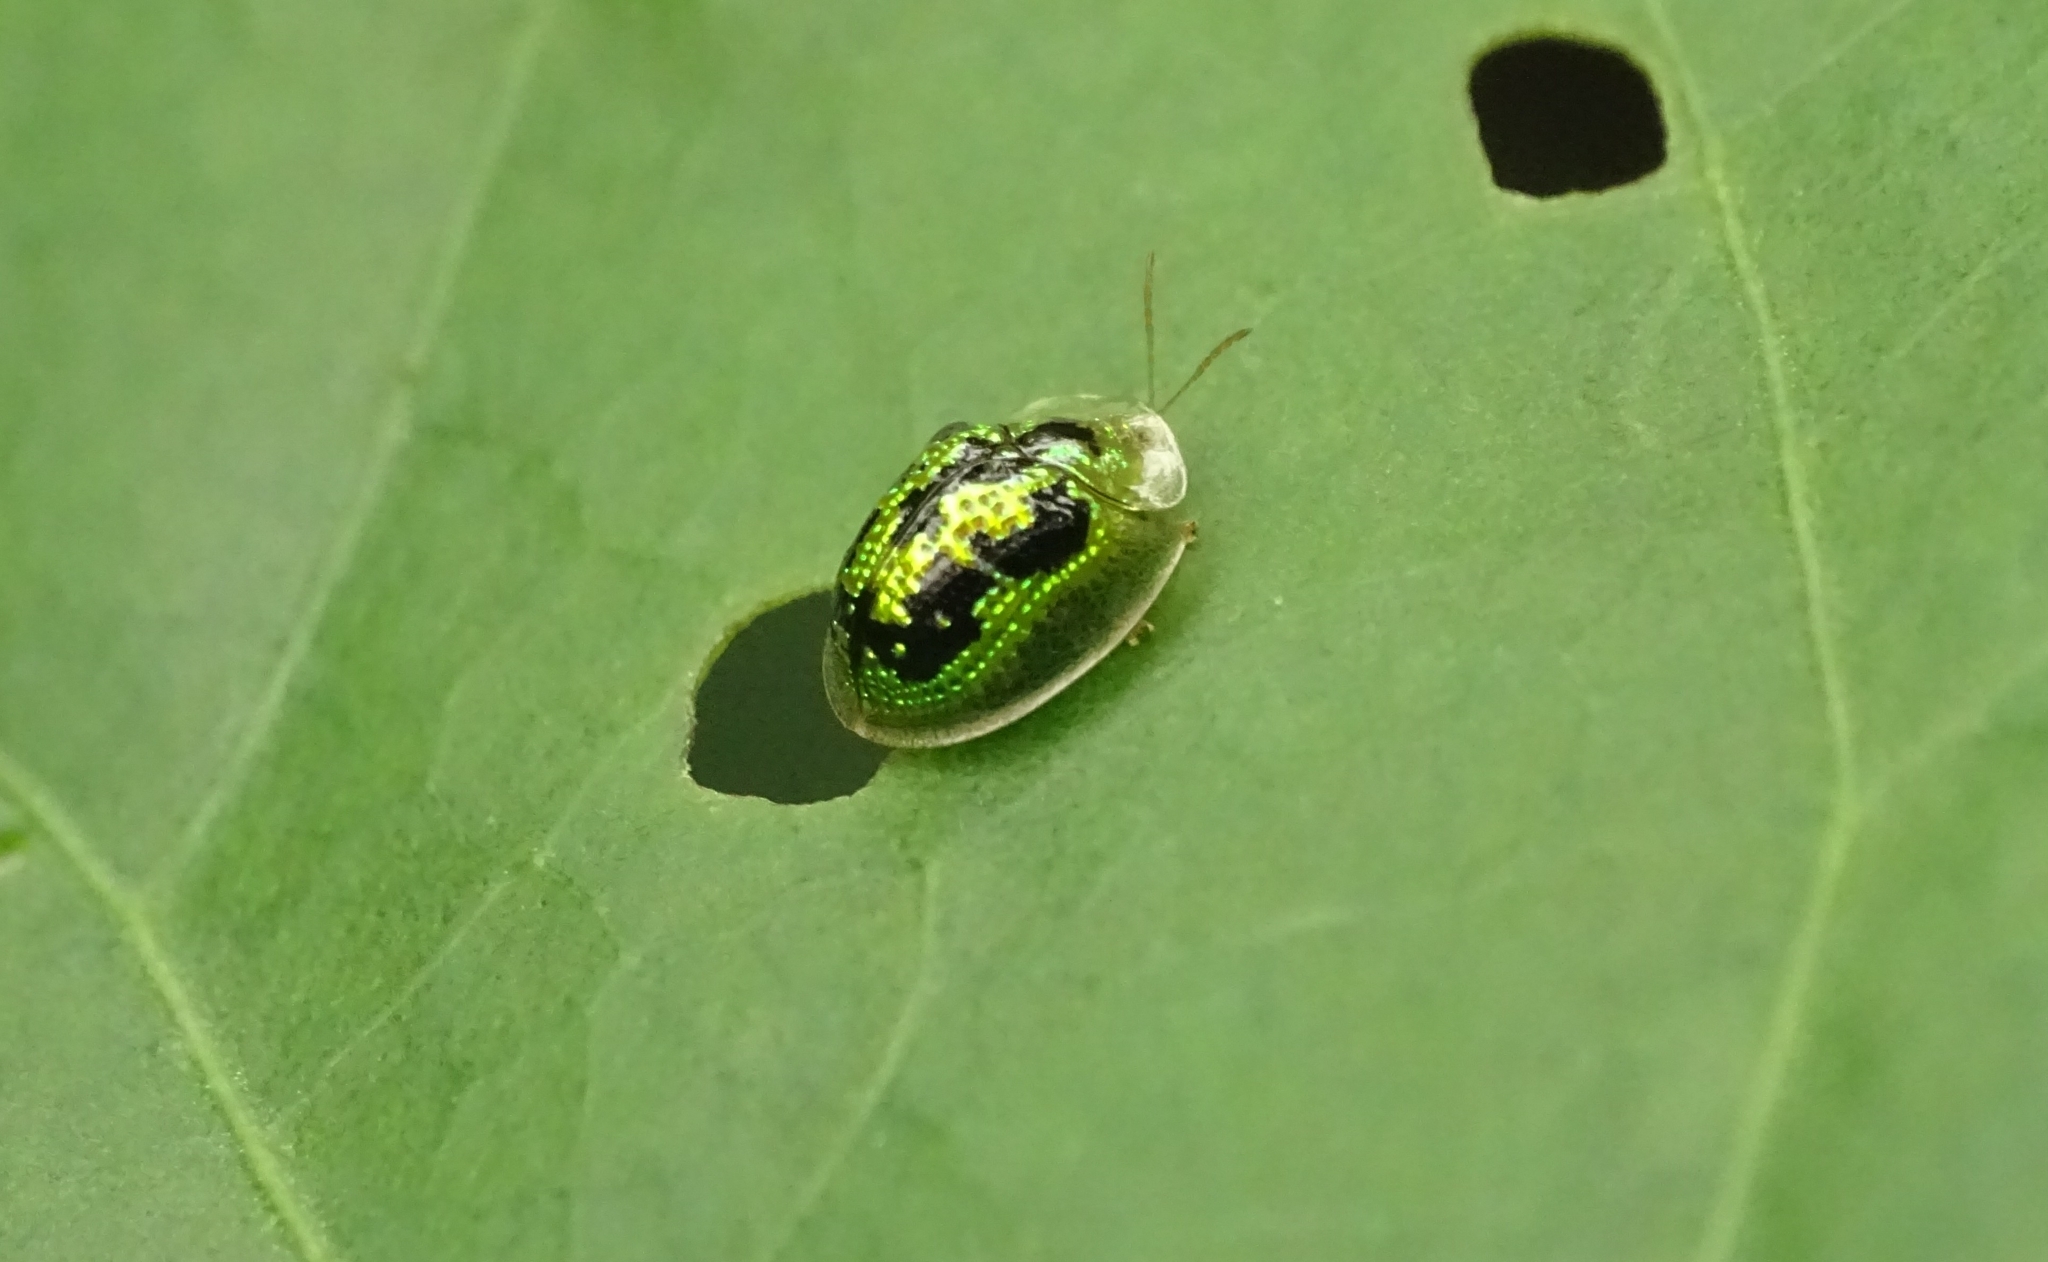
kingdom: Animalia
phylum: Arthropoda
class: Insecta
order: Coleoptera
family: Chrysomelidae
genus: Cassida
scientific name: Cassida circumdata
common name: Tortoise beetle
